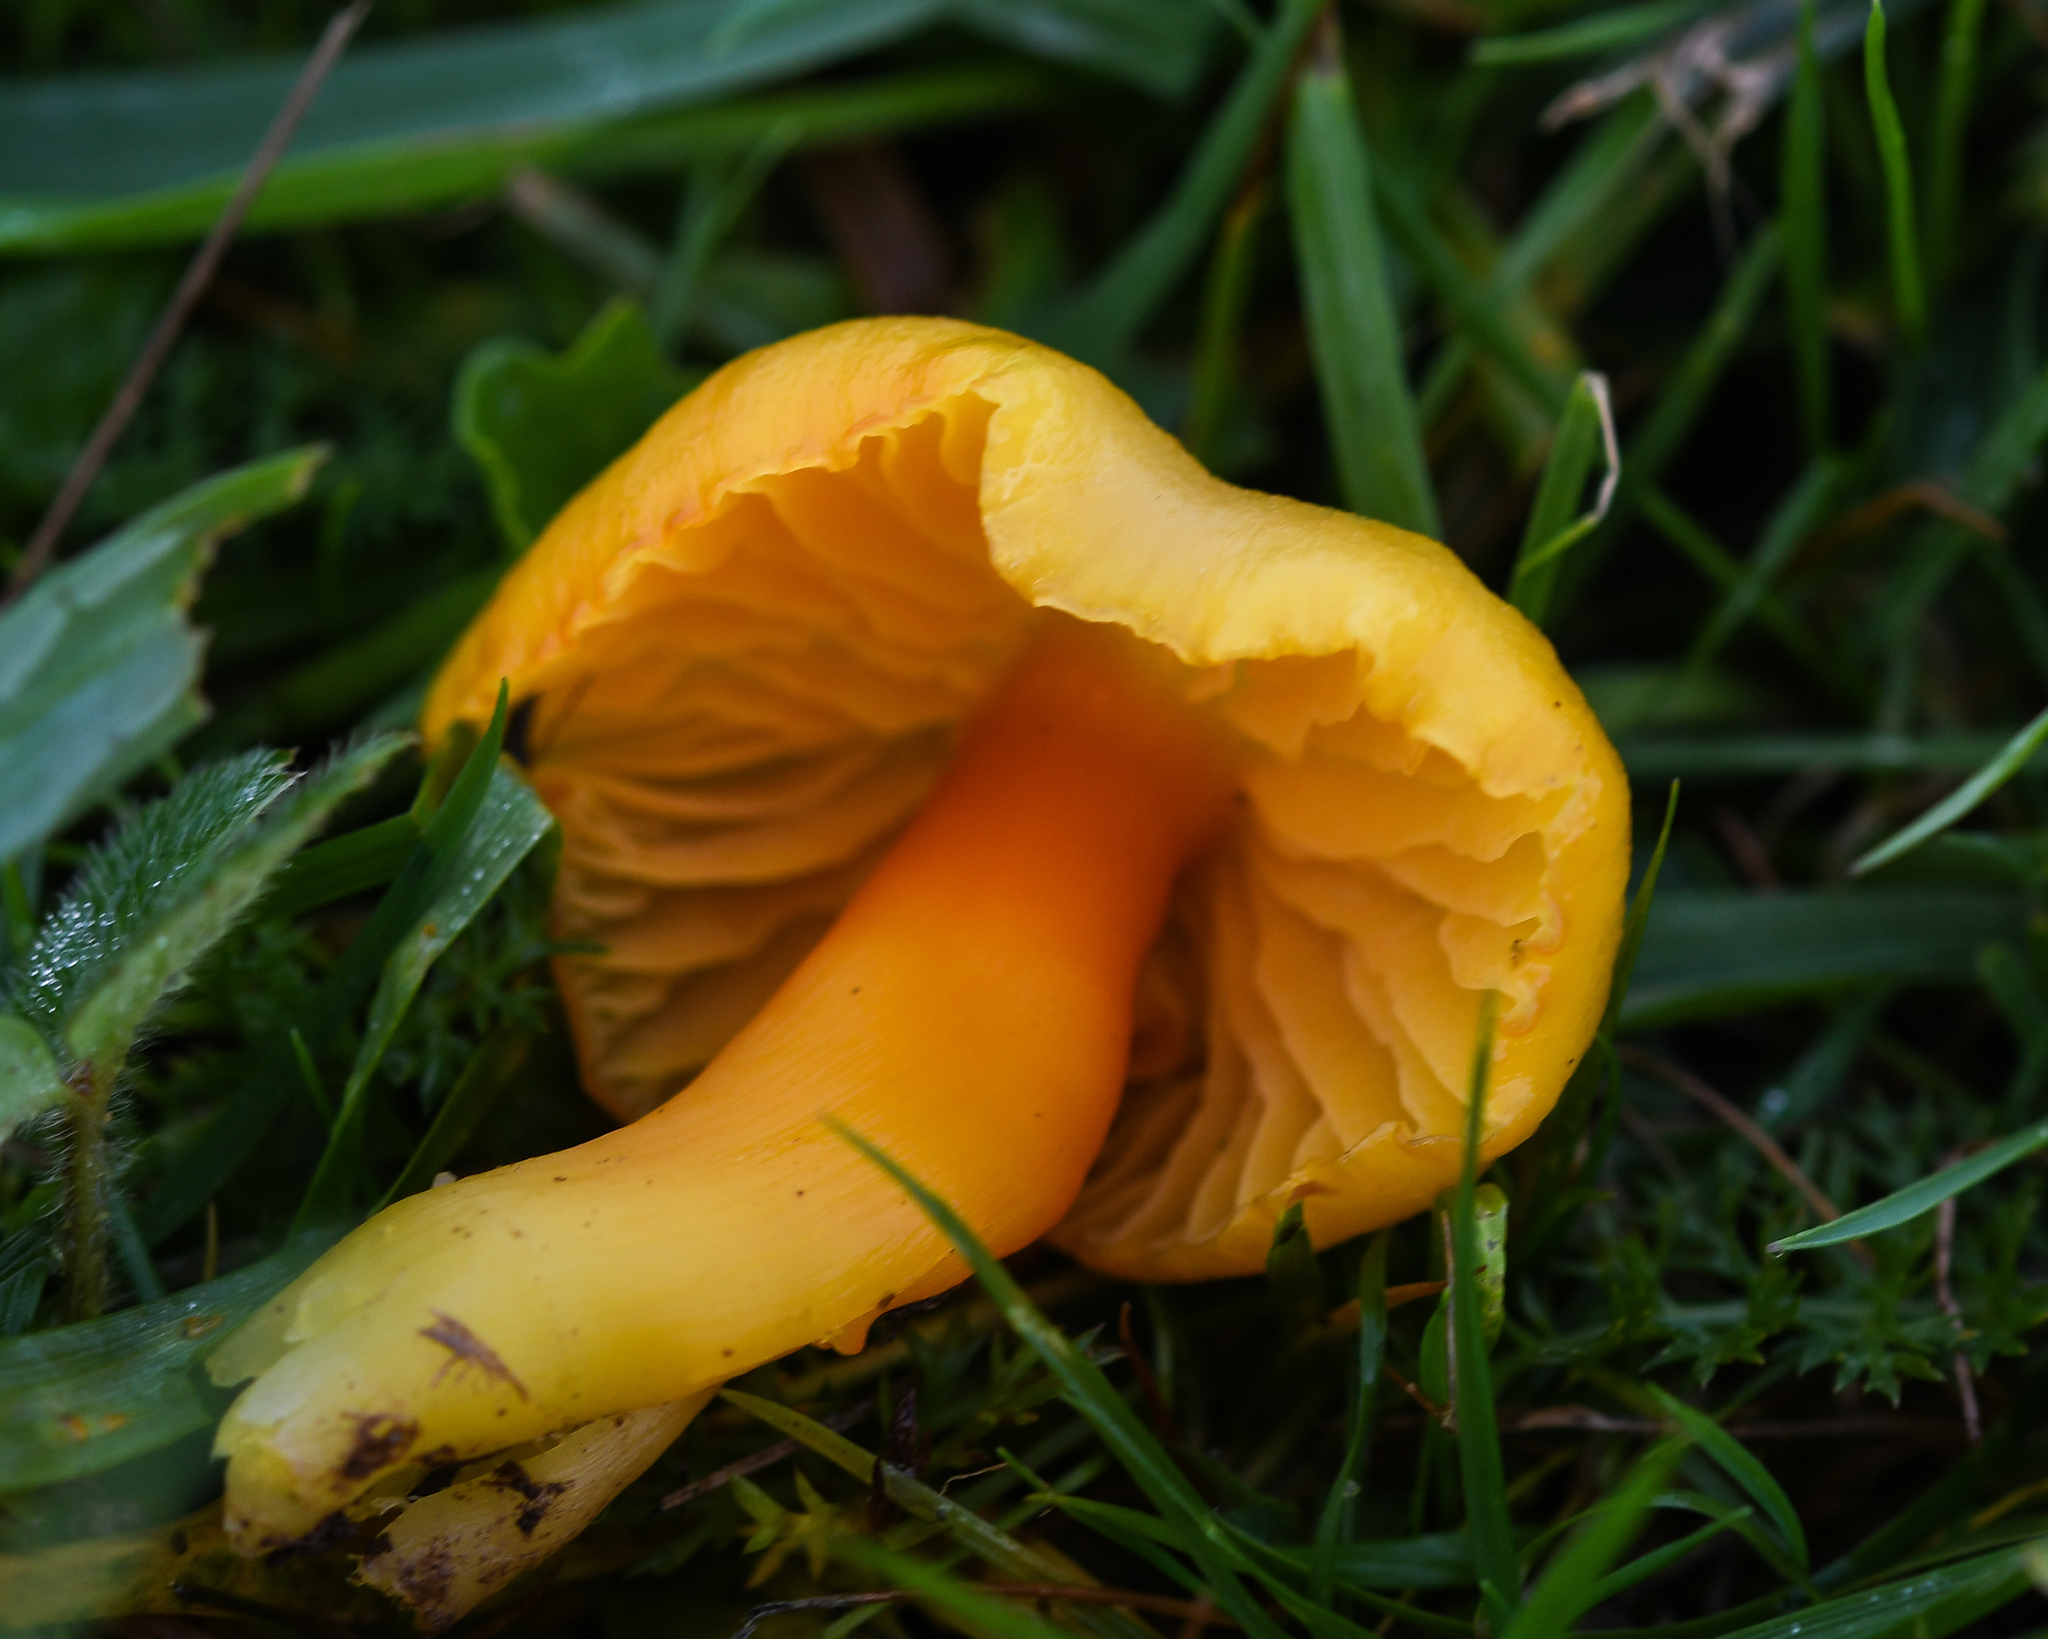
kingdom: Fungi
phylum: Basidiomycota
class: Agaricomycetes
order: Agaricales
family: Hygrophoraceae
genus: Hygrocybe
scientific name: Hygrocybe chlorophana
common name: Golden waxcap
